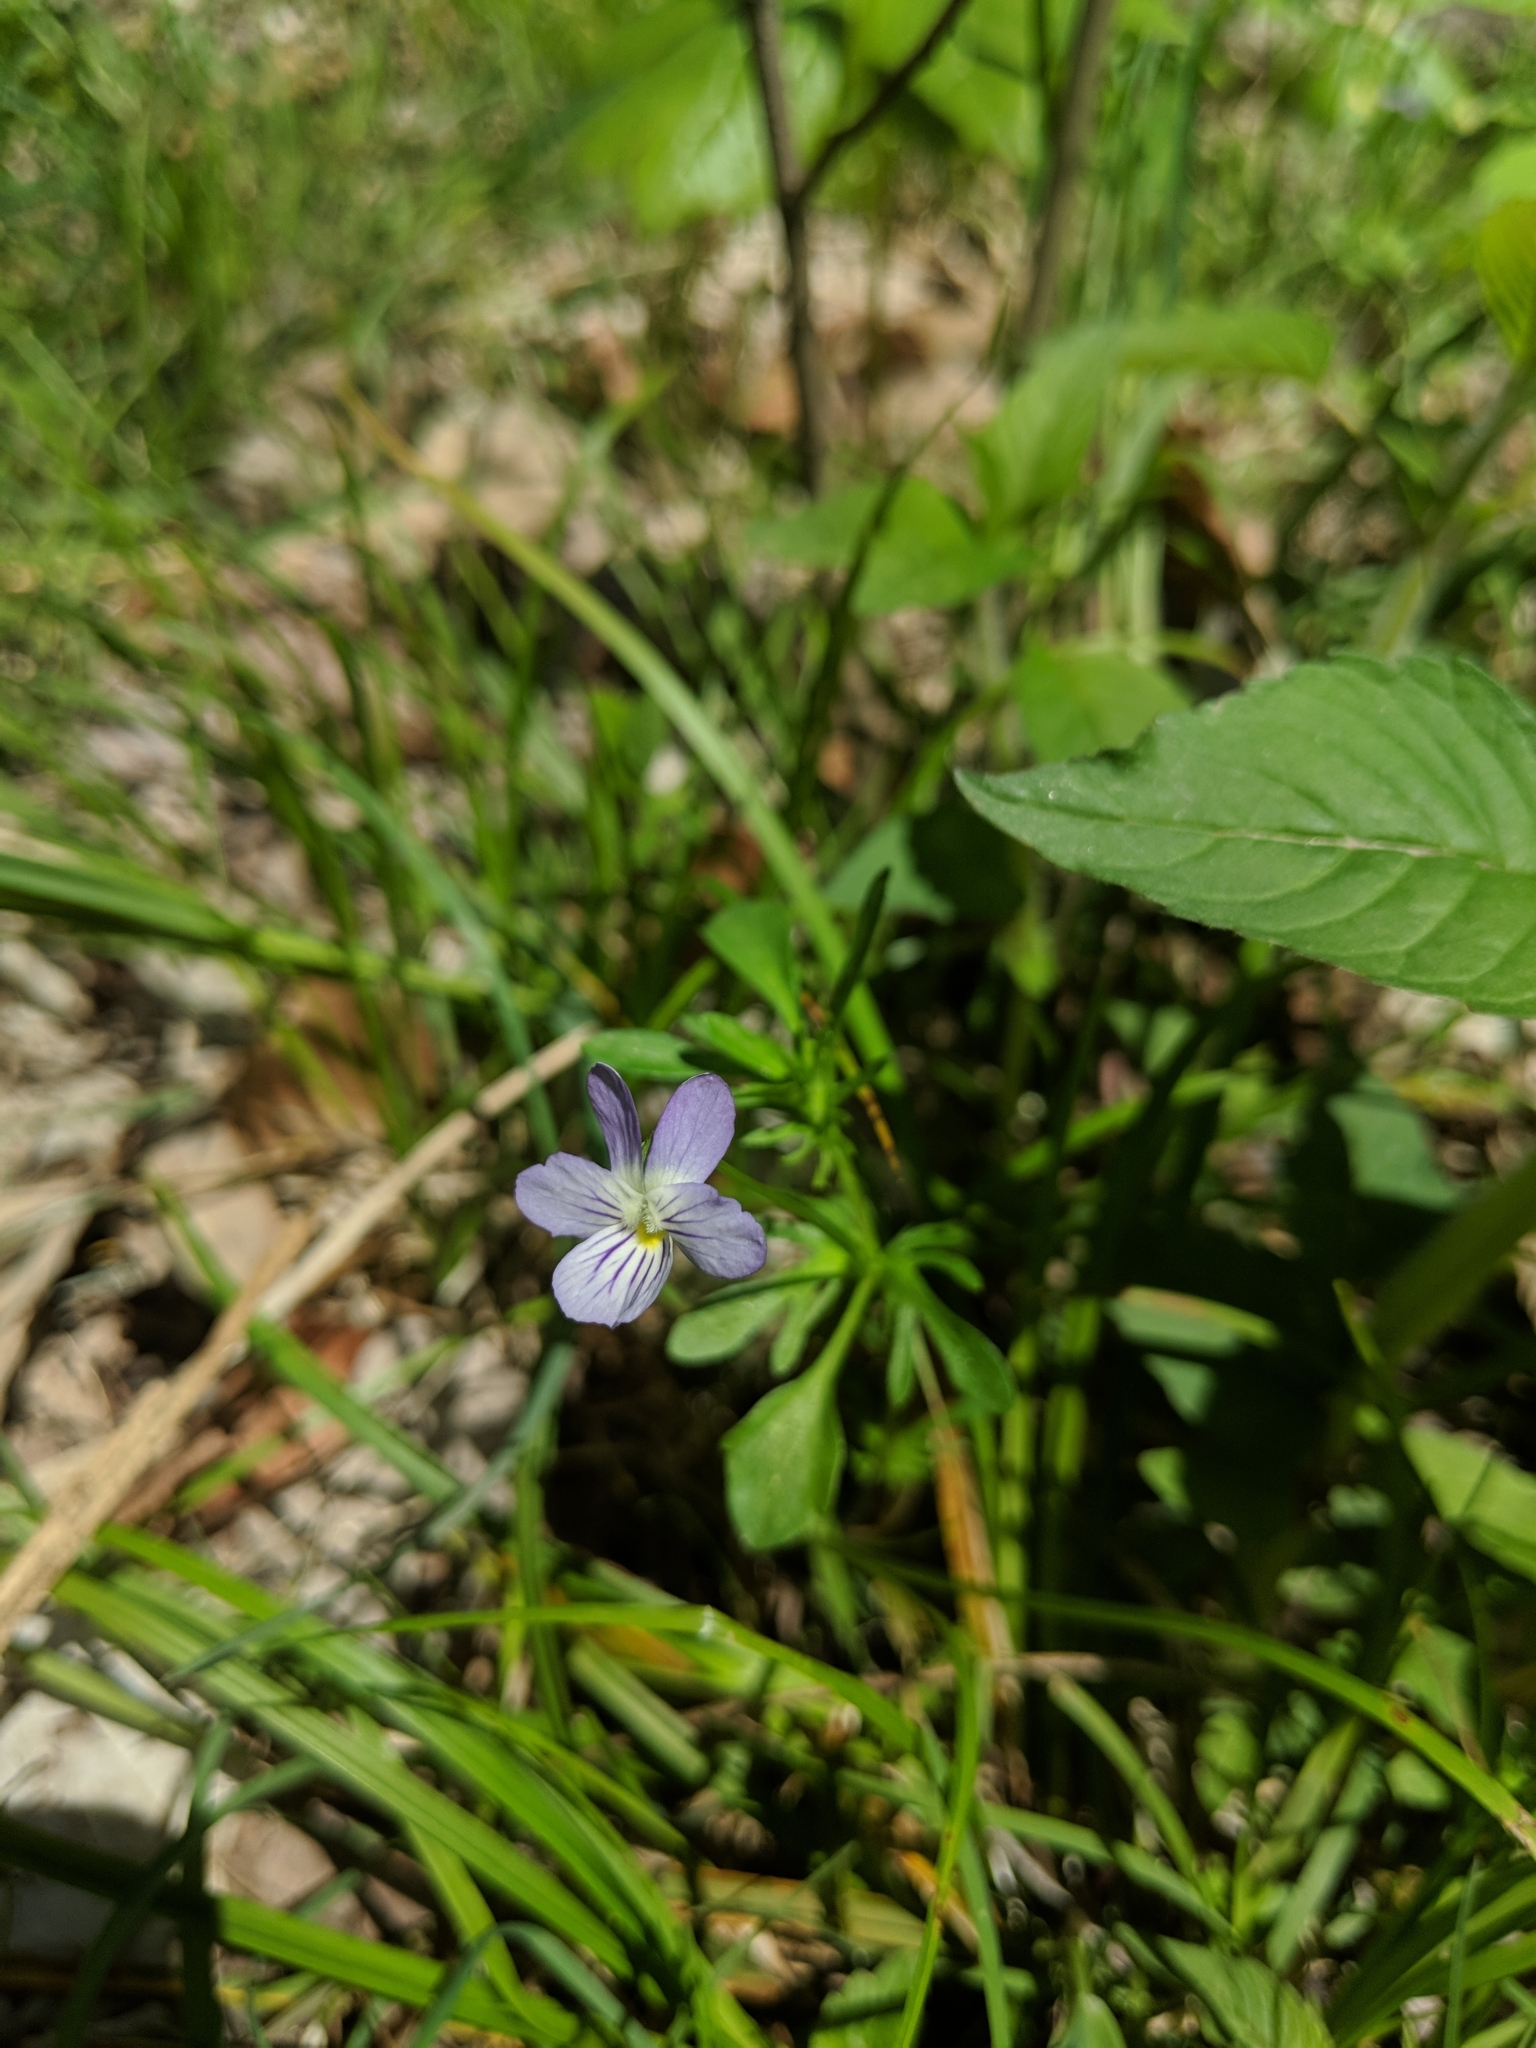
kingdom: Plantae
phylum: Tracheophyta
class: Magnoliopsida
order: Malpighiales
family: Violaceae
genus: Viola
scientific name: Viola rafinesquei
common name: American field pansy
